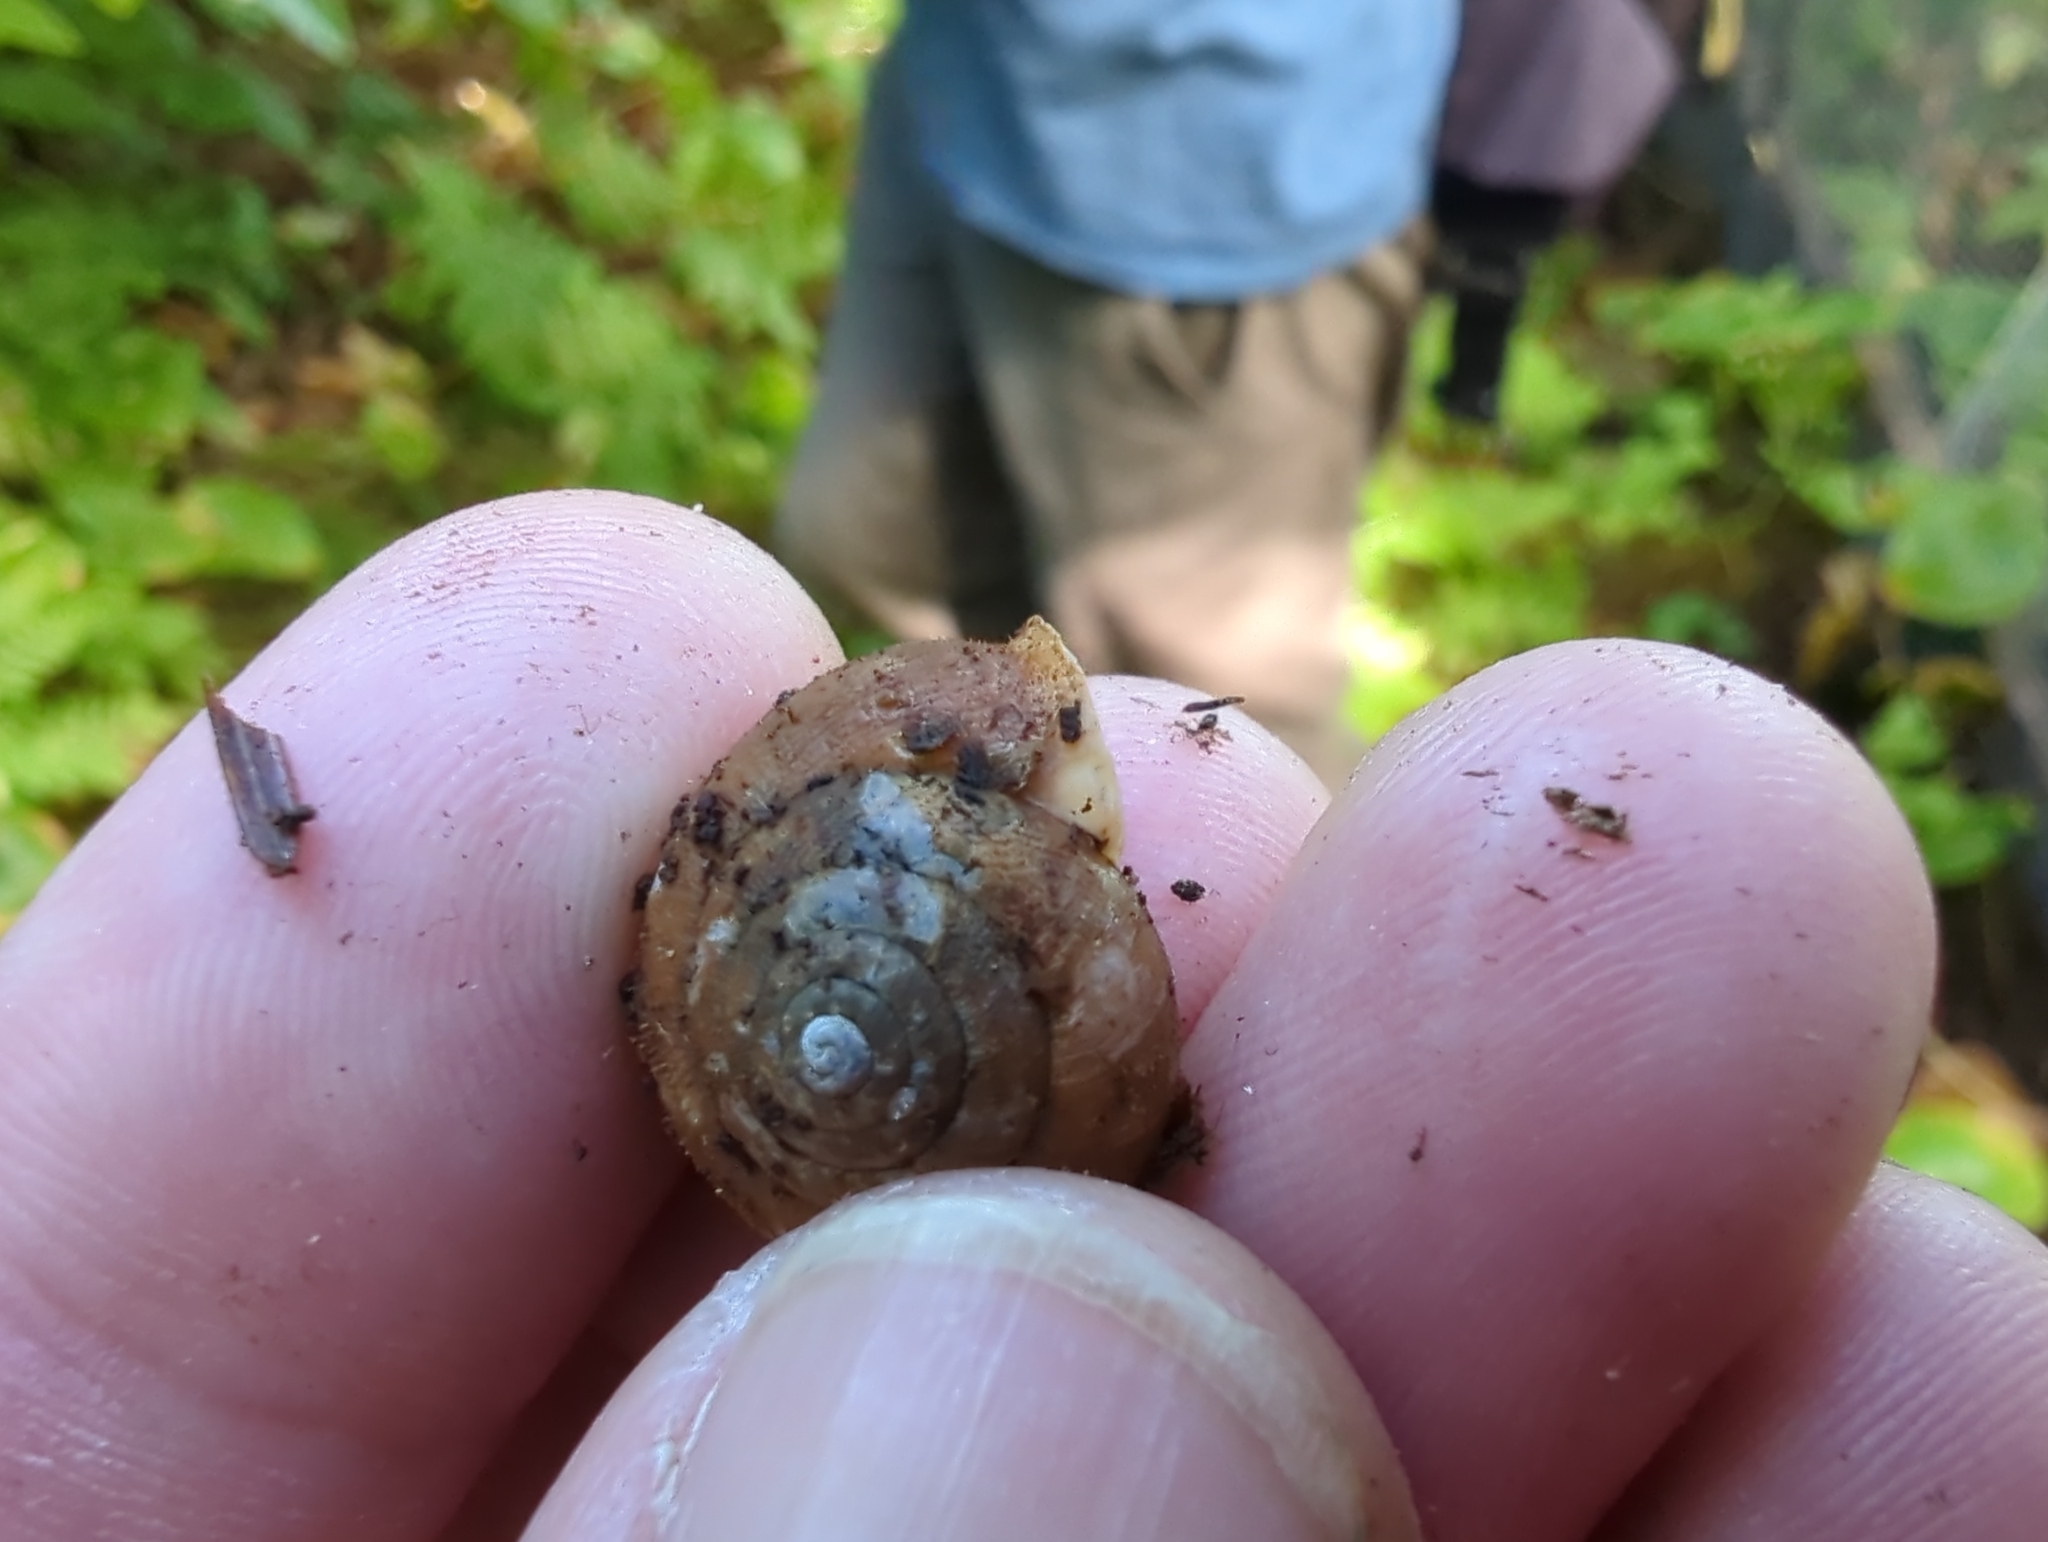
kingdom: Animalia
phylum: Mollusca
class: Gastropoda
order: Stylommatophora
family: Polygyridae
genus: Vespericola
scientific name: Vespericola columbianus
